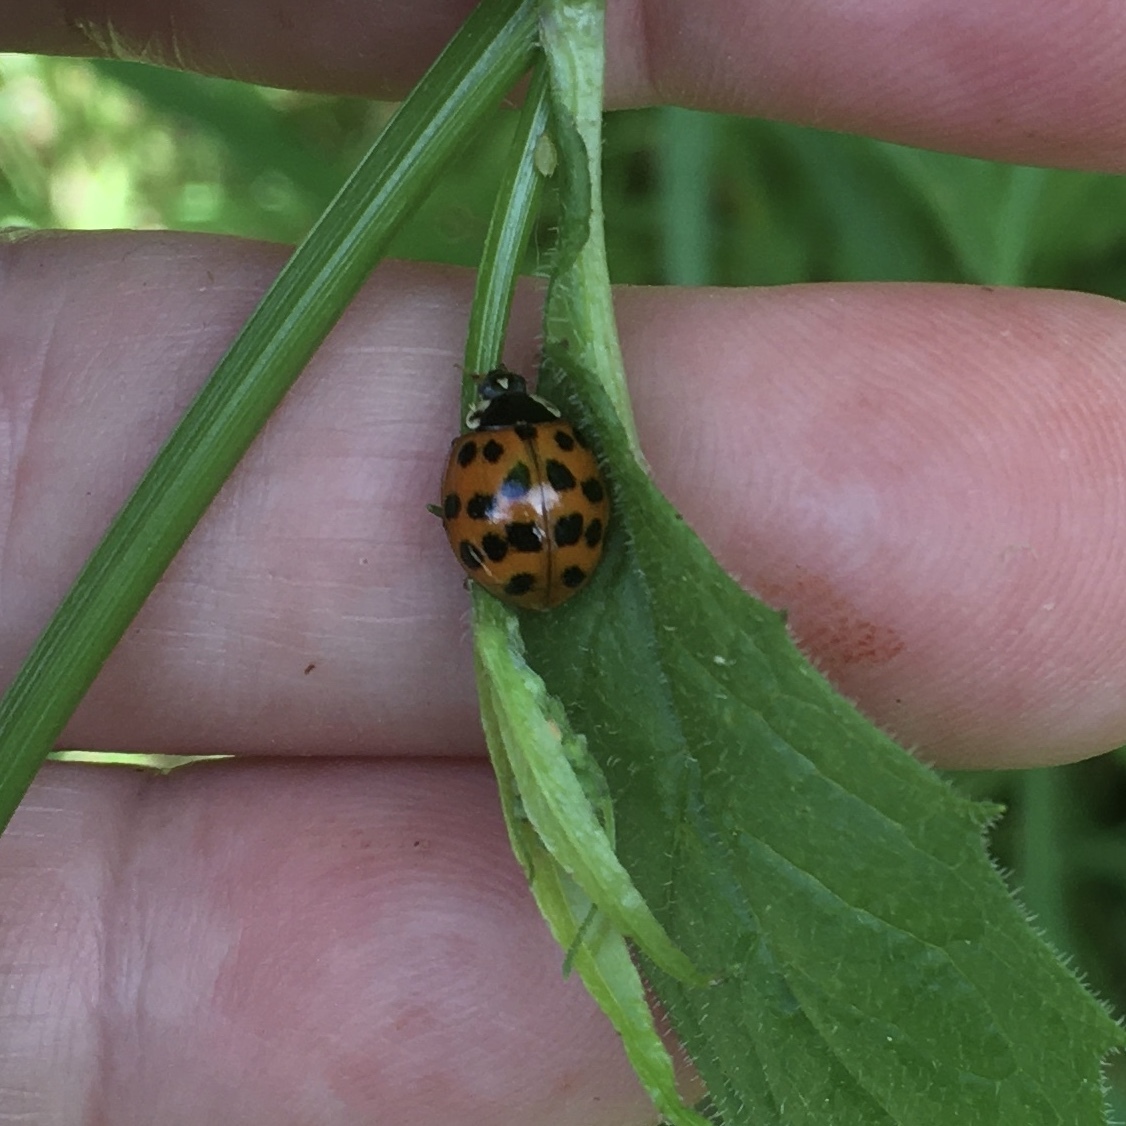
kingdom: Animalia
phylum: Arthropoda
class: Insecta
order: Coleoptera
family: Coccinellidae
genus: Harmonia
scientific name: Harmonia axyridis
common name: Harlequin ladybird
